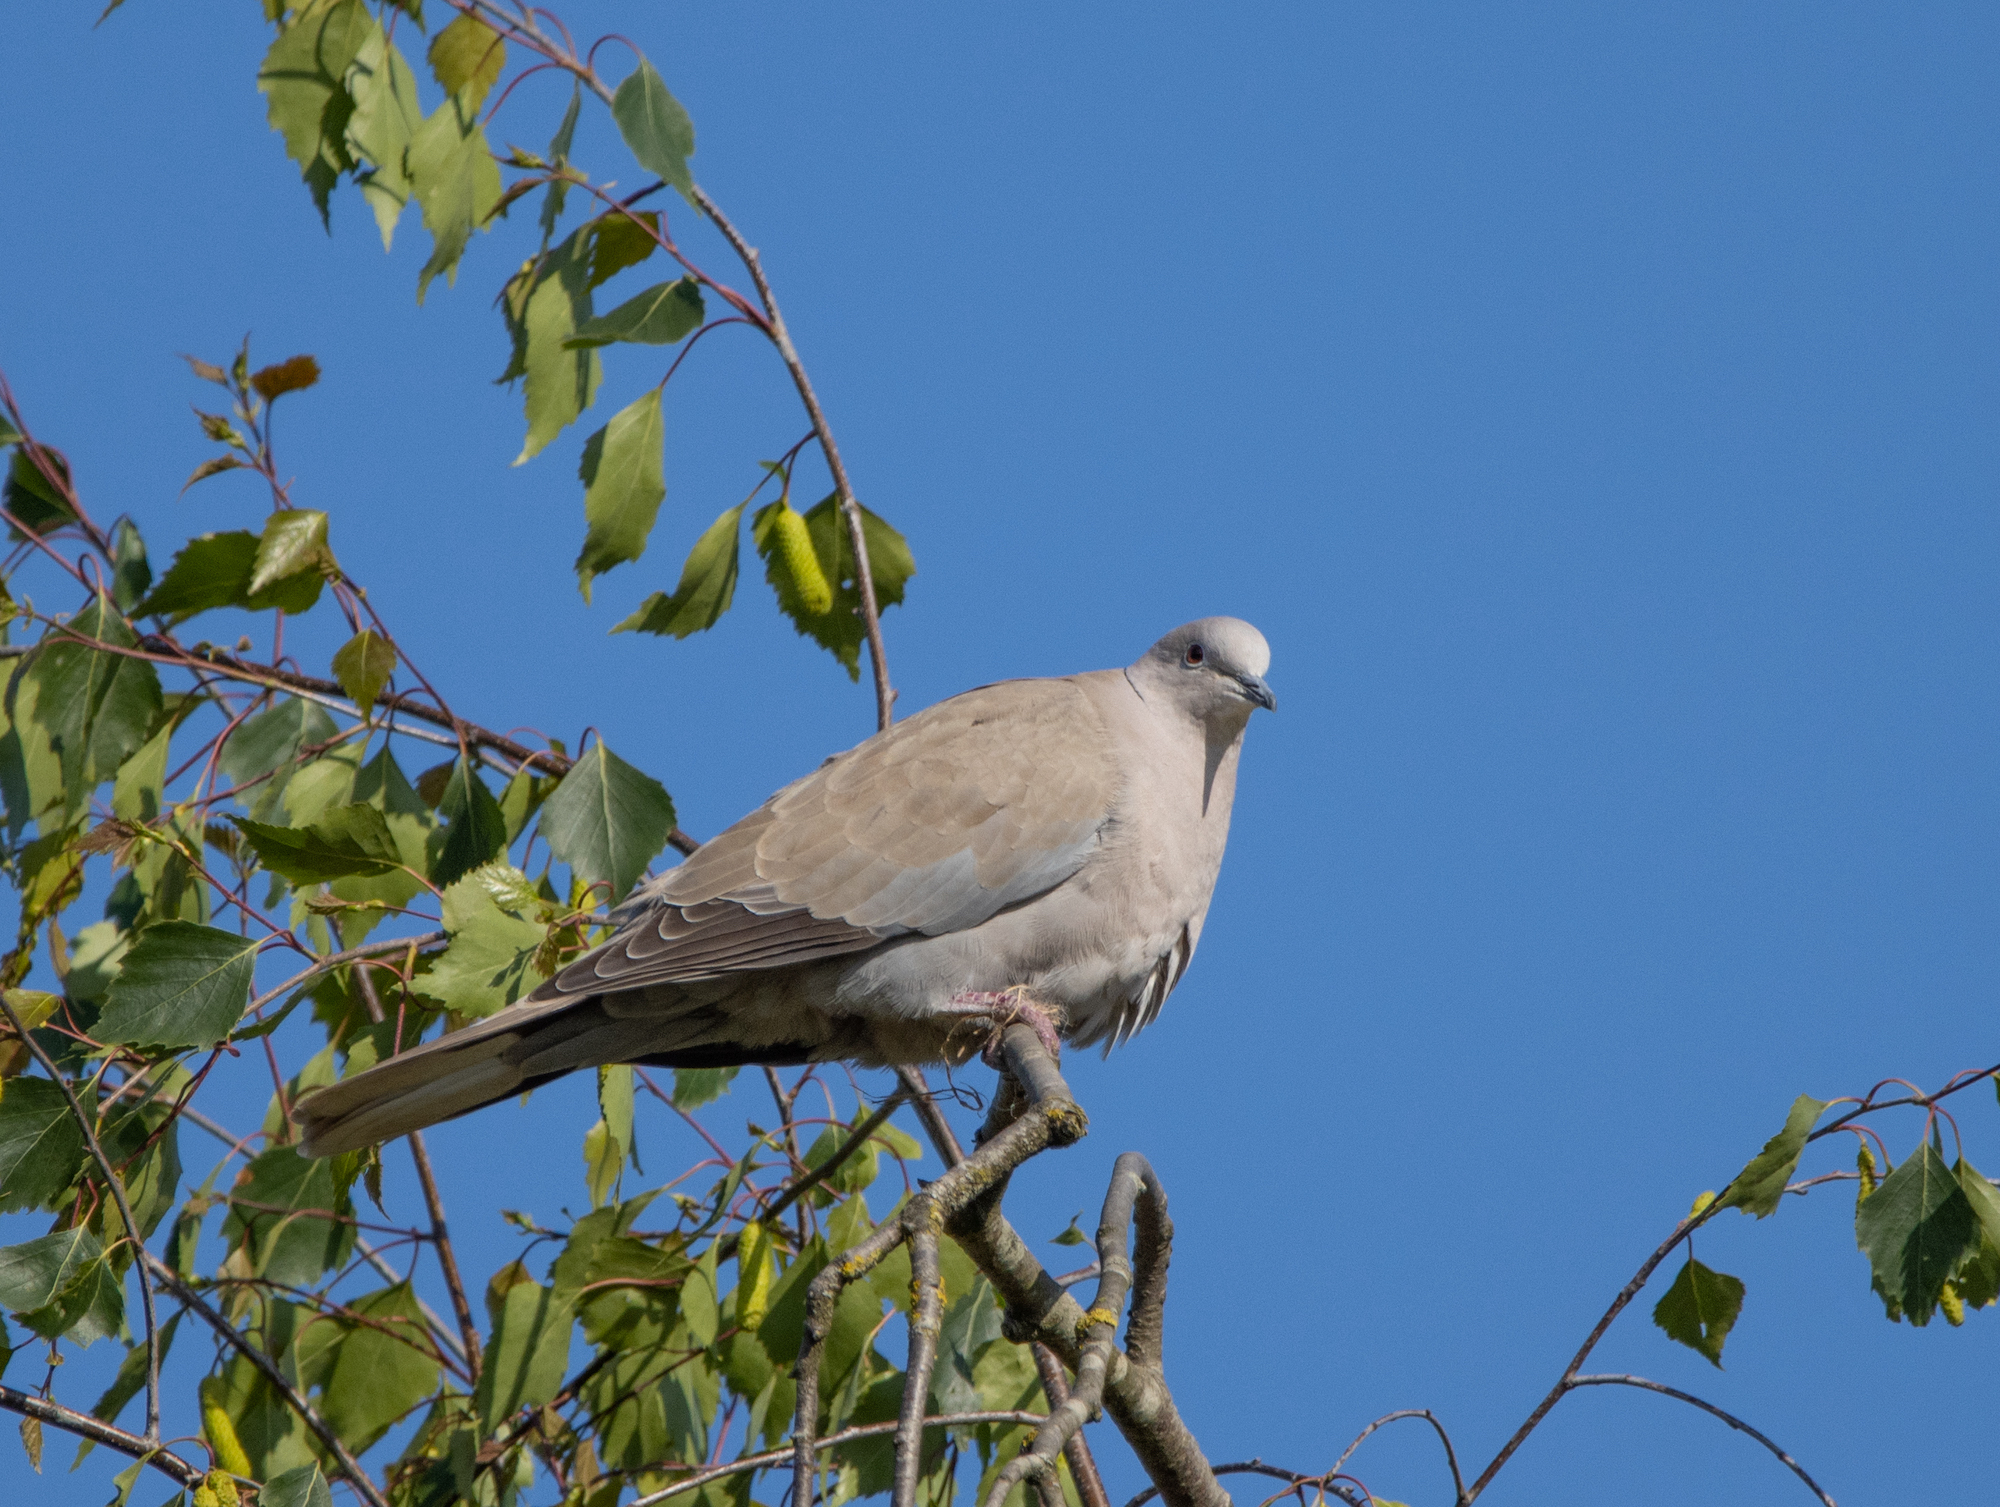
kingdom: Animalia
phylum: Chordata
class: Aves
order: Columbiformes
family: Columbidae
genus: Streptopelia
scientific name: Streptopelia decaocto
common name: Eurasian collared dove
